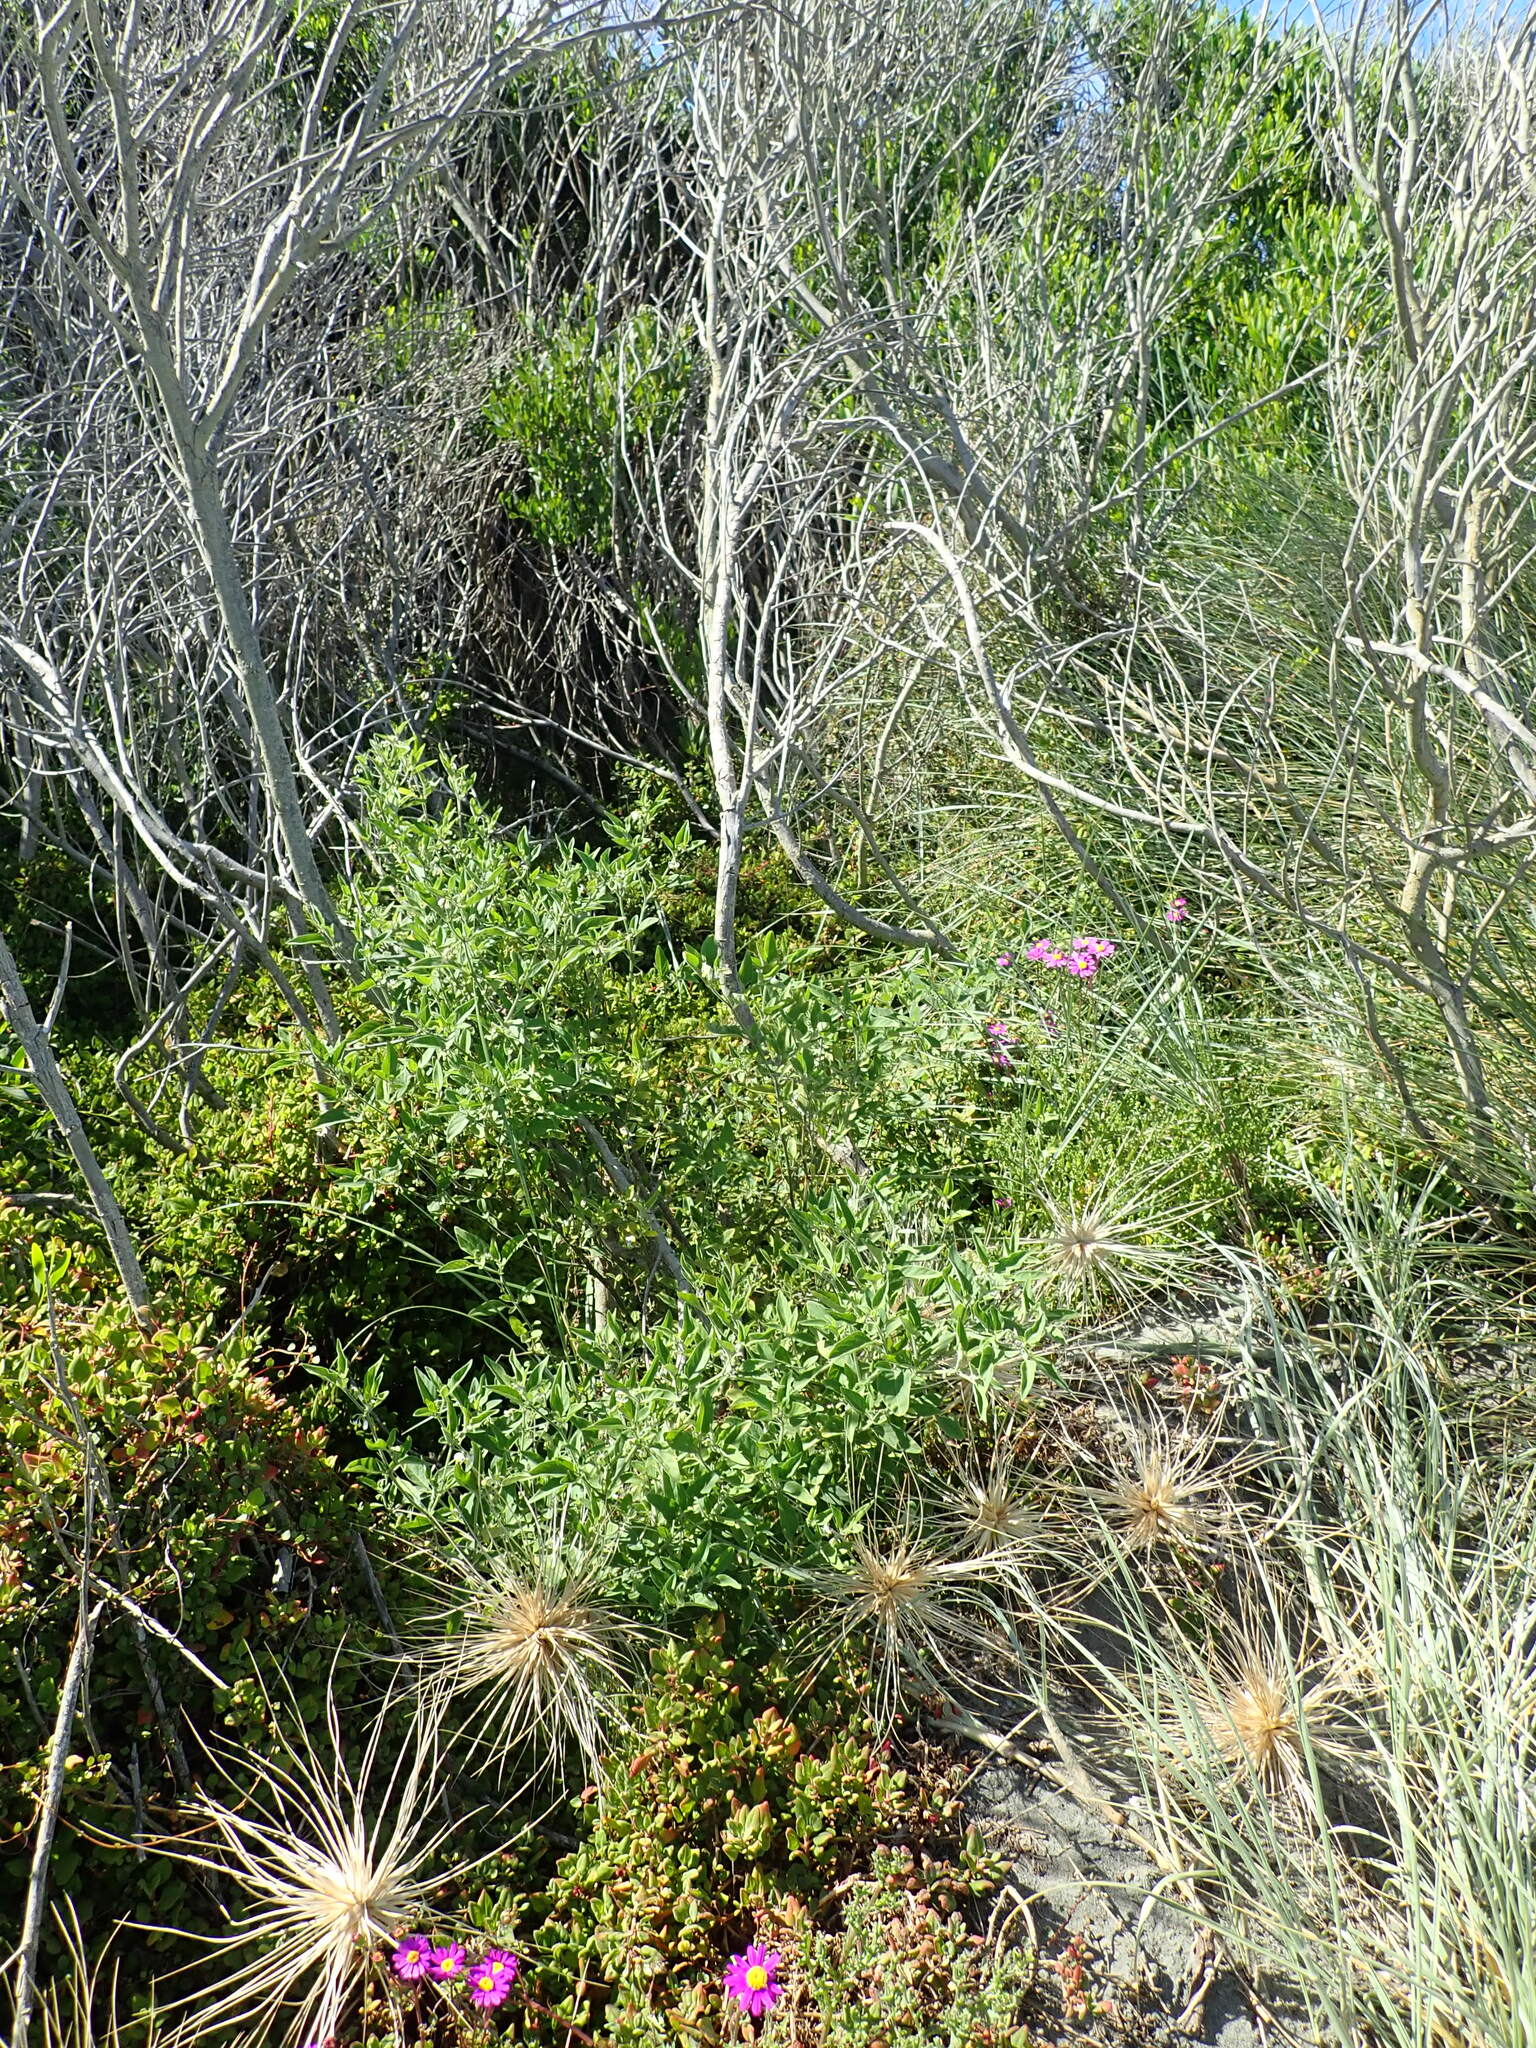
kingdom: Plantae
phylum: Tracheophyta
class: Magnoliopsida
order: Solanales
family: Solanaceae
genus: Solanum
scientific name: Solanum chenopodioides
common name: Tall nightshade
